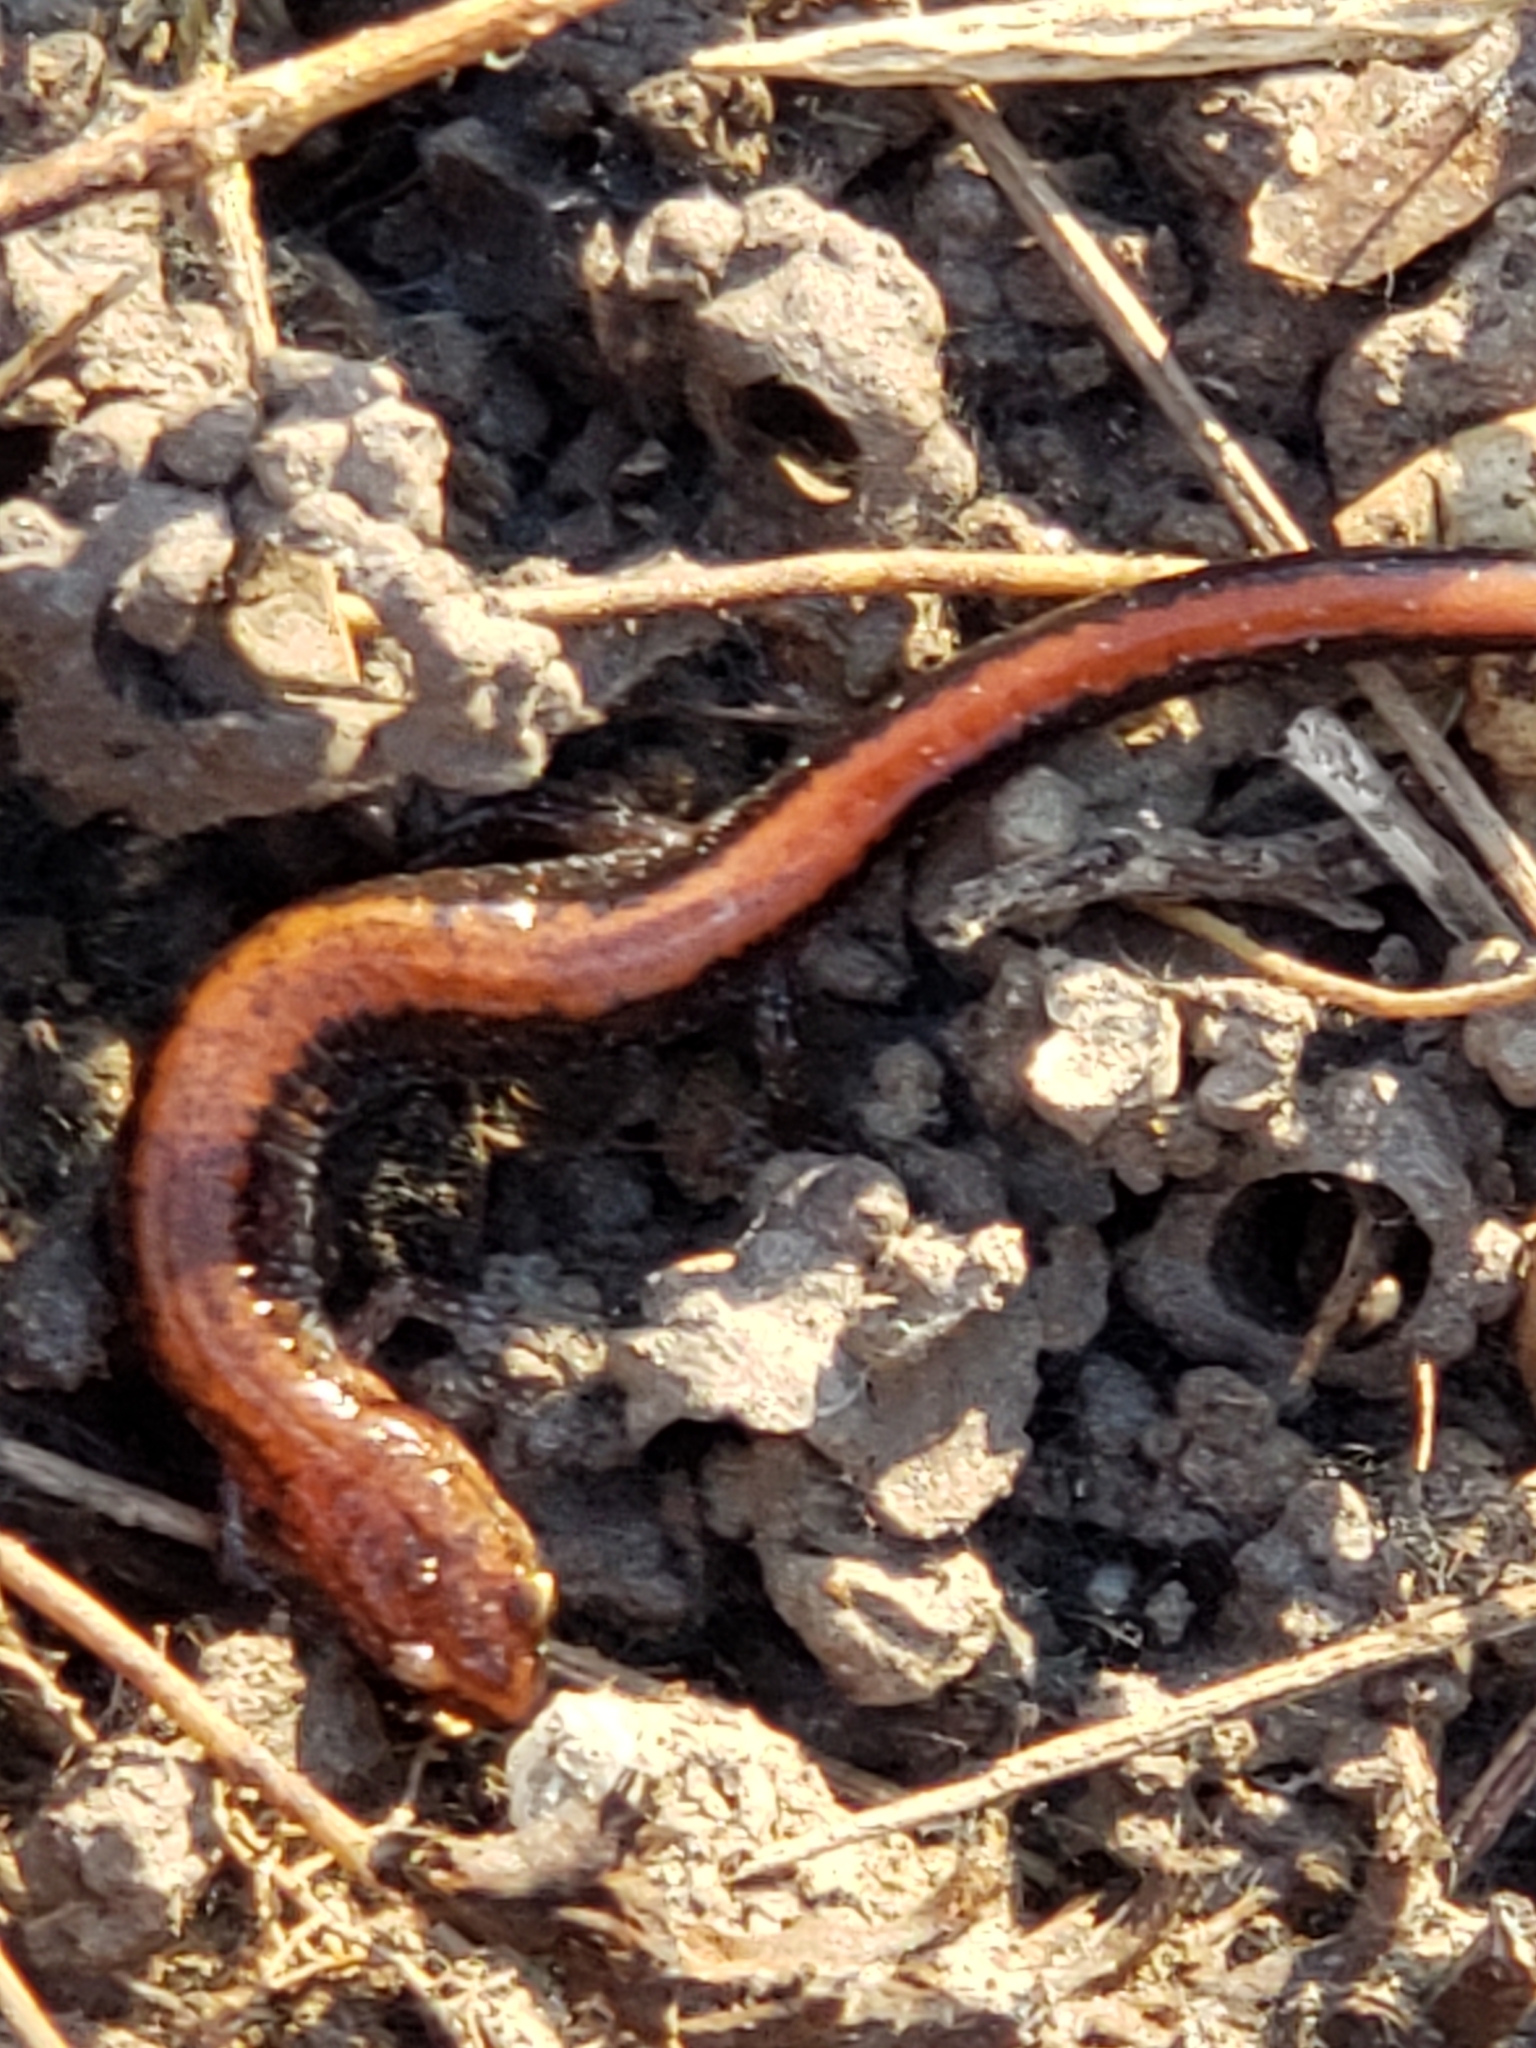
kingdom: Animalia
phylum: Chordata
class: Amphibia
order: Caudata
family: Plethodontidae
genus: Plethodon
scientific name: Plethodon cinereus
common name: Redback salamander
